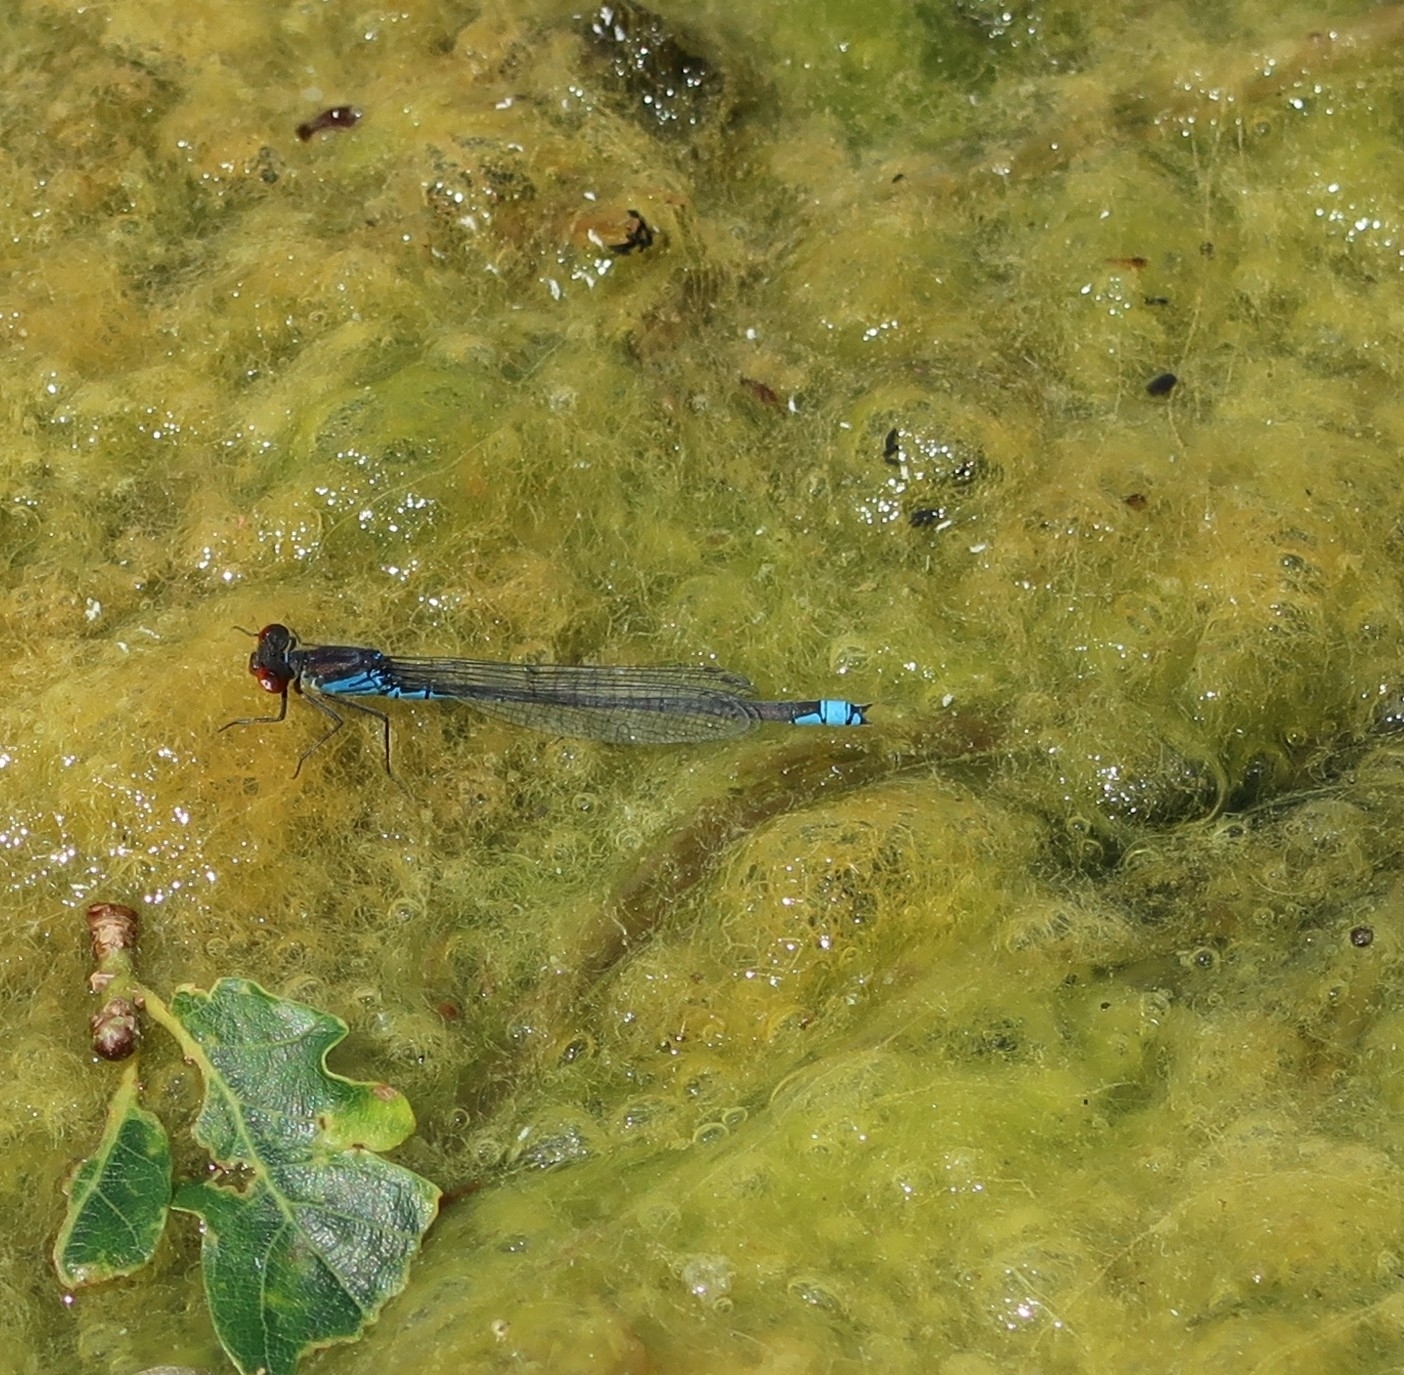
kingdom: Animalia
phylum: Arthropoda
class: Insecta
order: Odonata
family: Coenagrionidae
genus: Erythromma
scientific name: Erythromma viridulum
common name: Small red-eyed damselfly
